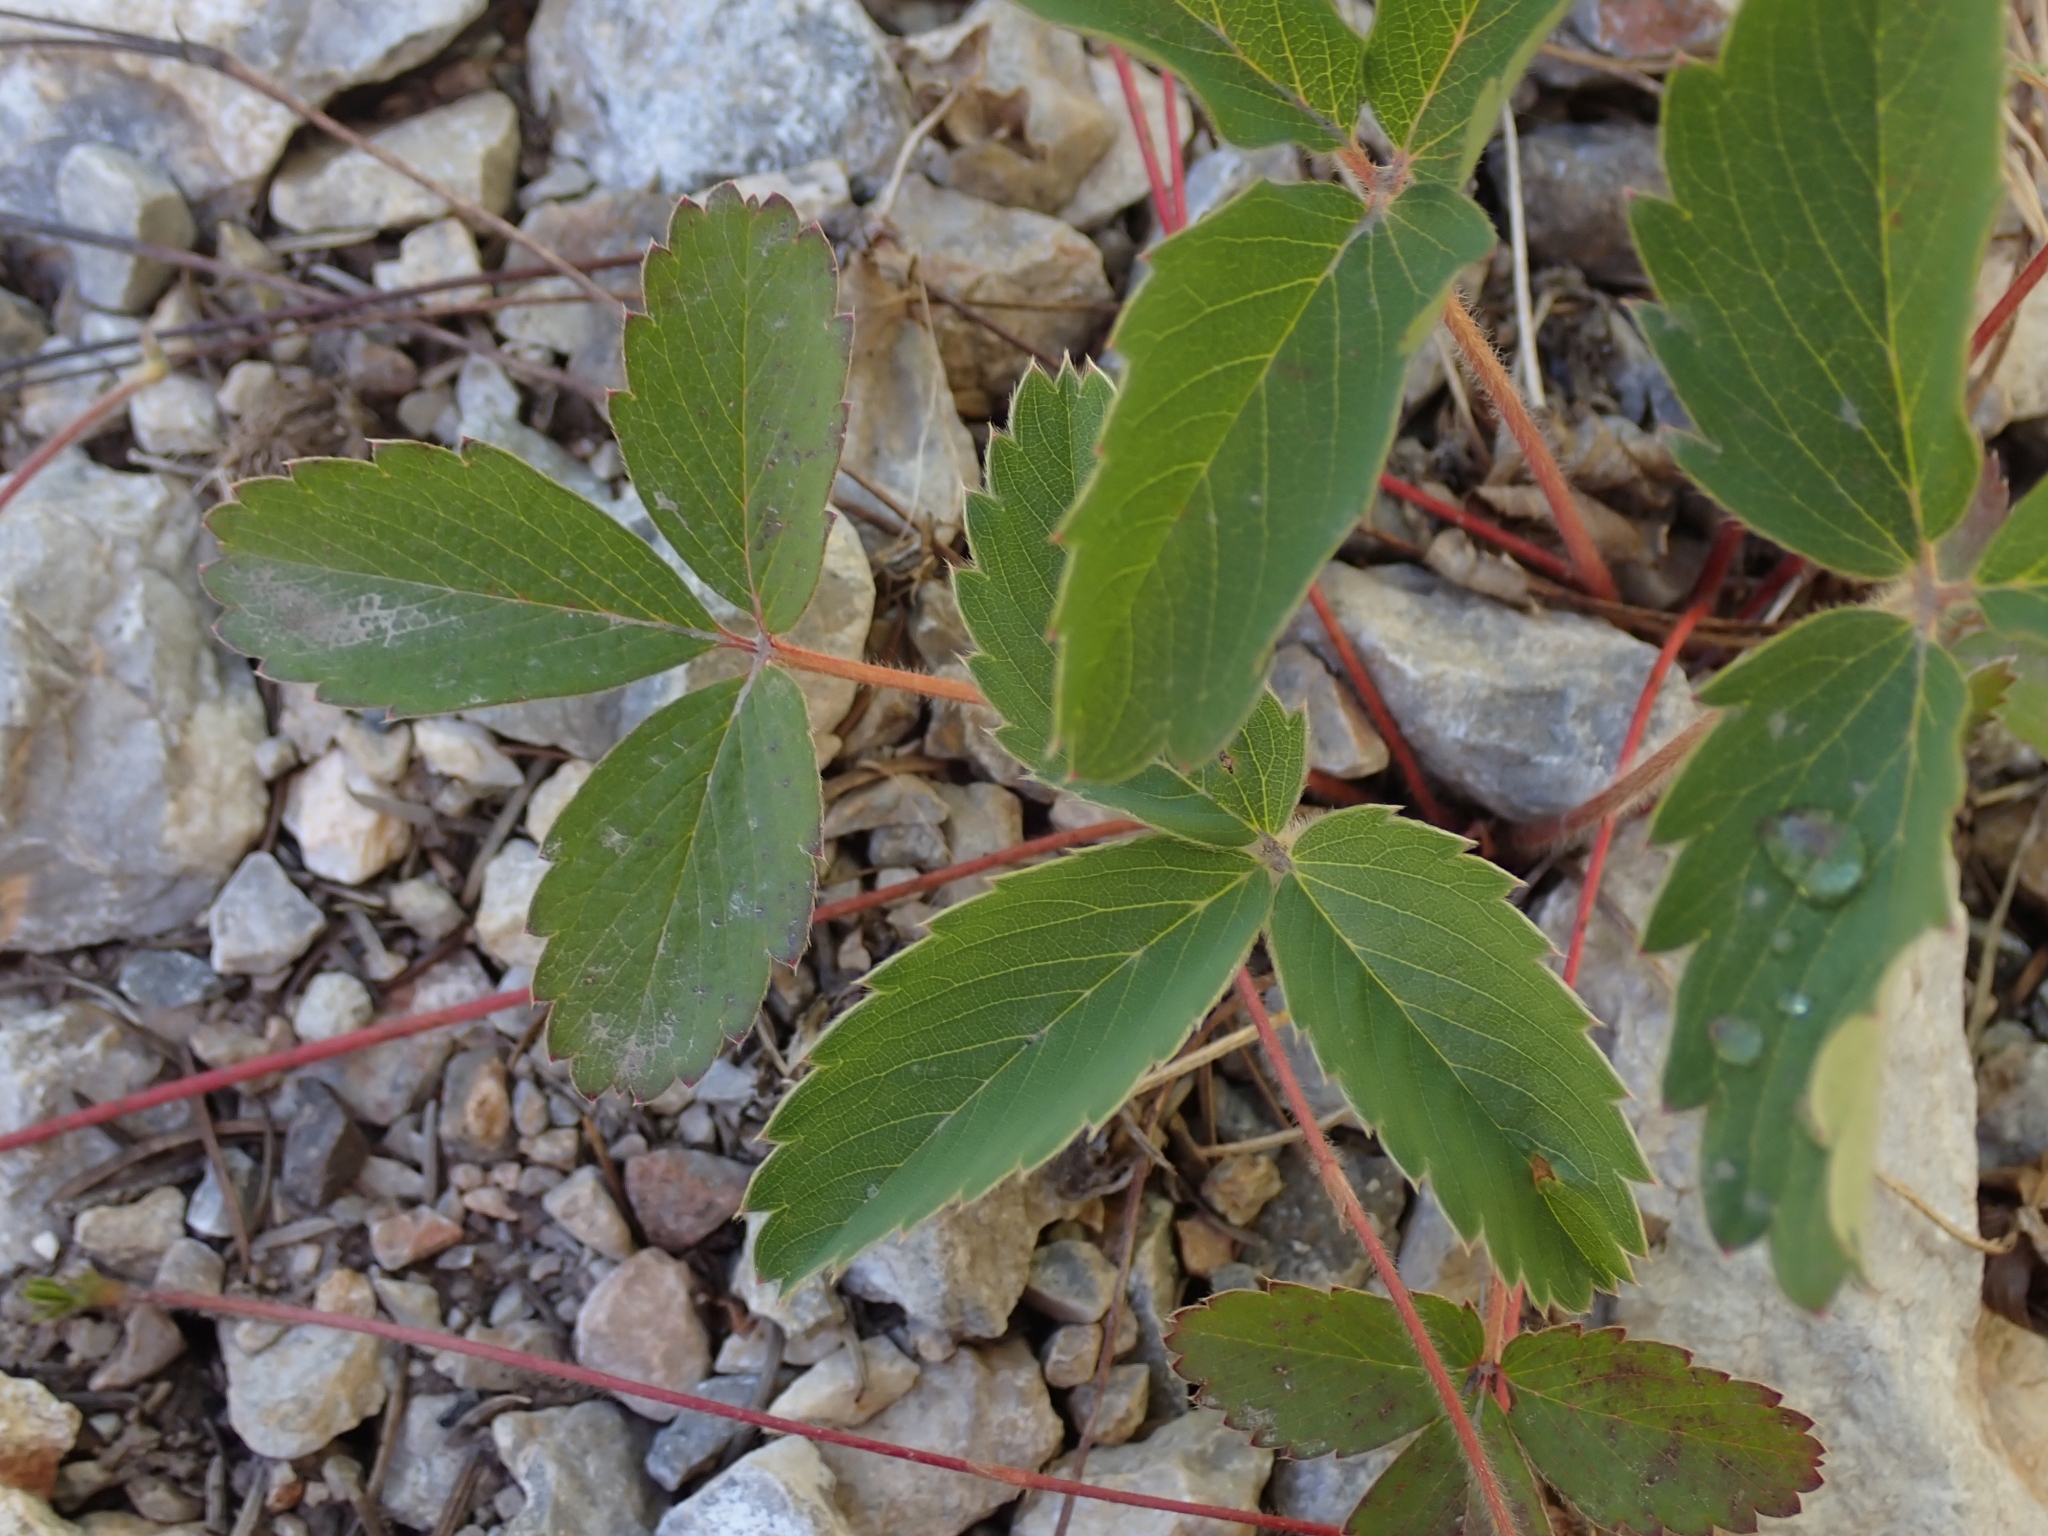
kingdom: Plantae
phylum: Tracheophyta
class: Magnoliopsida
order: Rosales
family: Rosaceae
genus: Fragaria
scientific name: Fragaria virginiana
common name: Thickleaved wild strawberry
